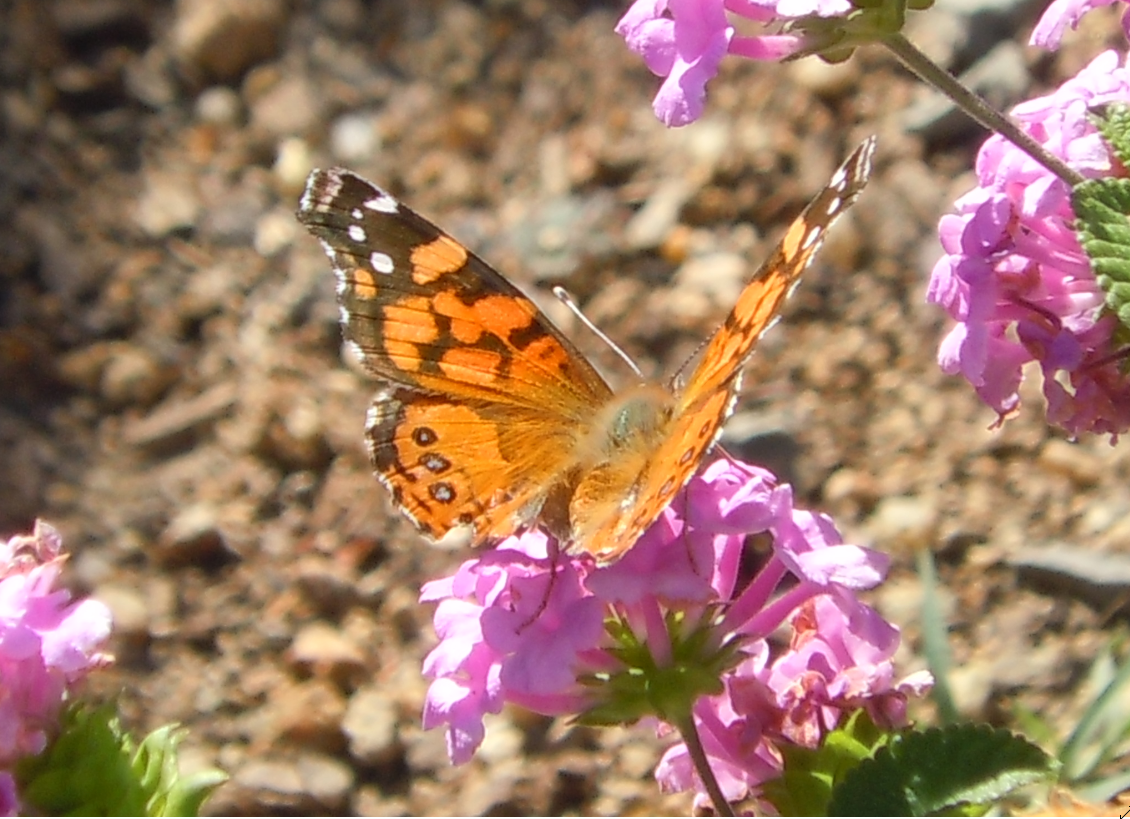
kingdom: Animalia
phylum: Arthropoda
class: Insecta
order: Lepidoptera
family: Nymphalidae
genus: Vanessa
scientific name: Vanessa annabella
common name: West coast lady
